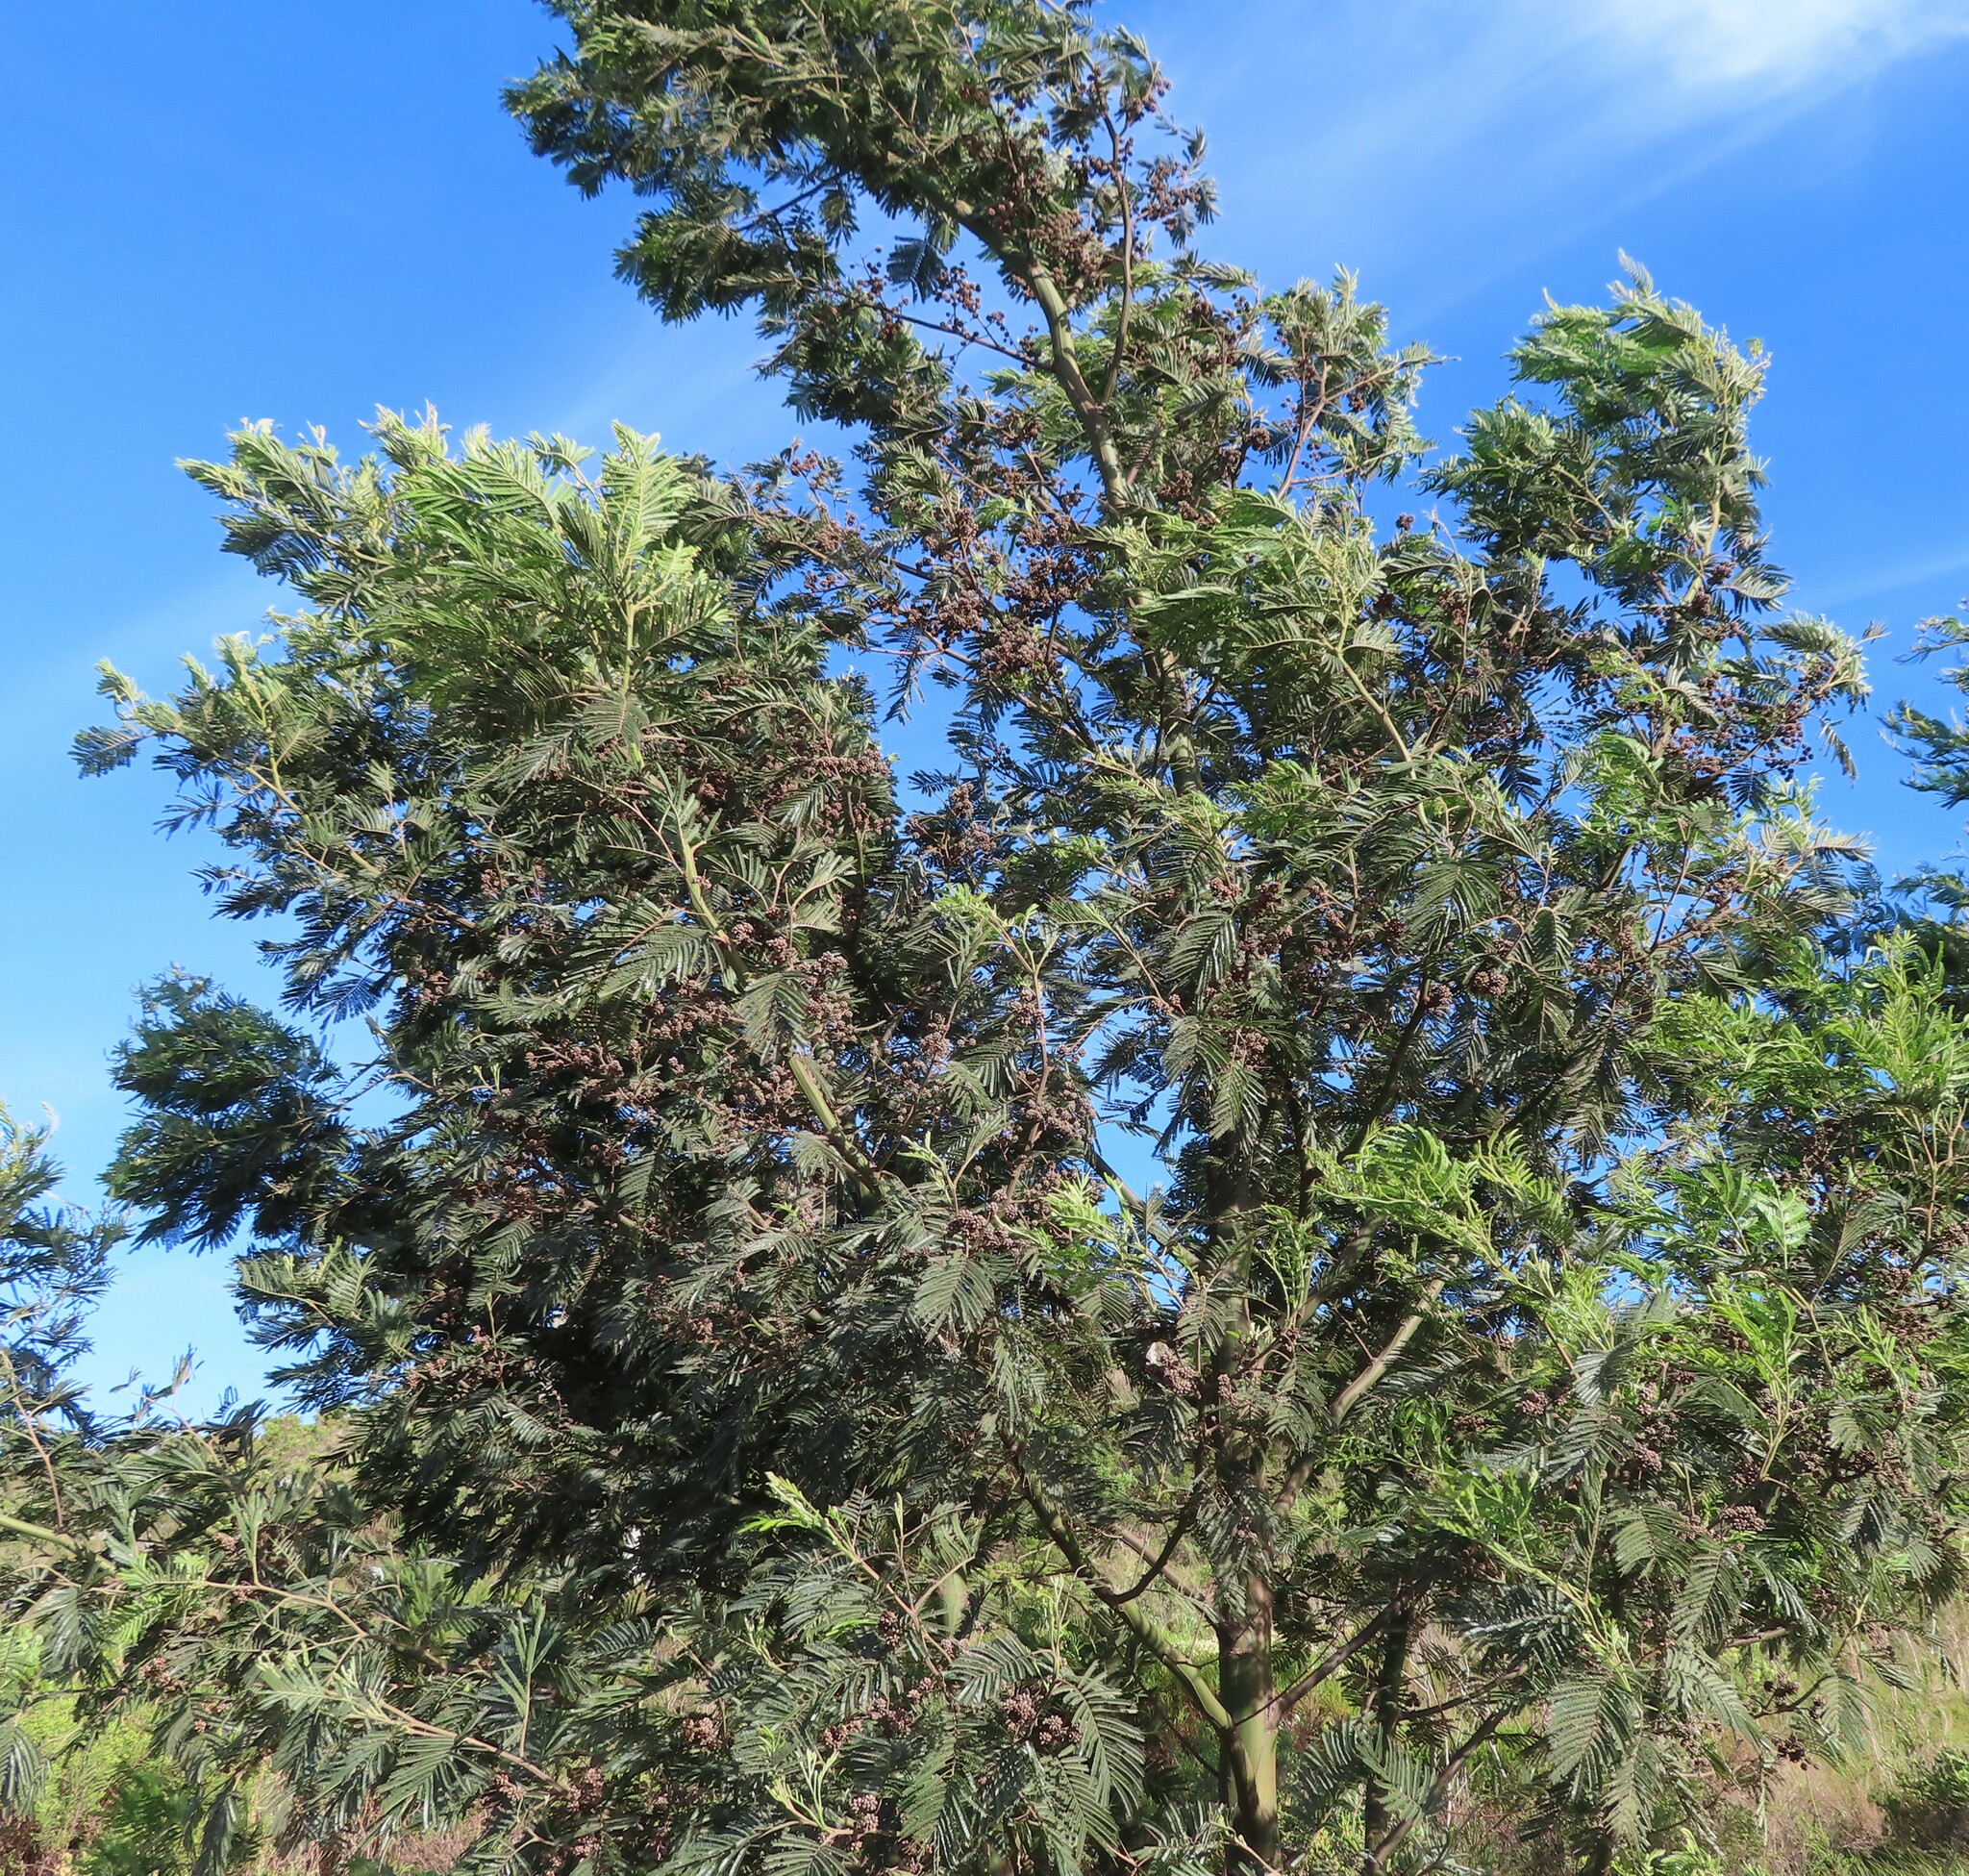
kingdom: Plantae
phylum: Tracheophyta
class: Magnoliopsida
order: Fabales
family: Fabaceae
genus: Acacia
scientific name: Acacia mearnsii
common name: Black wattle
